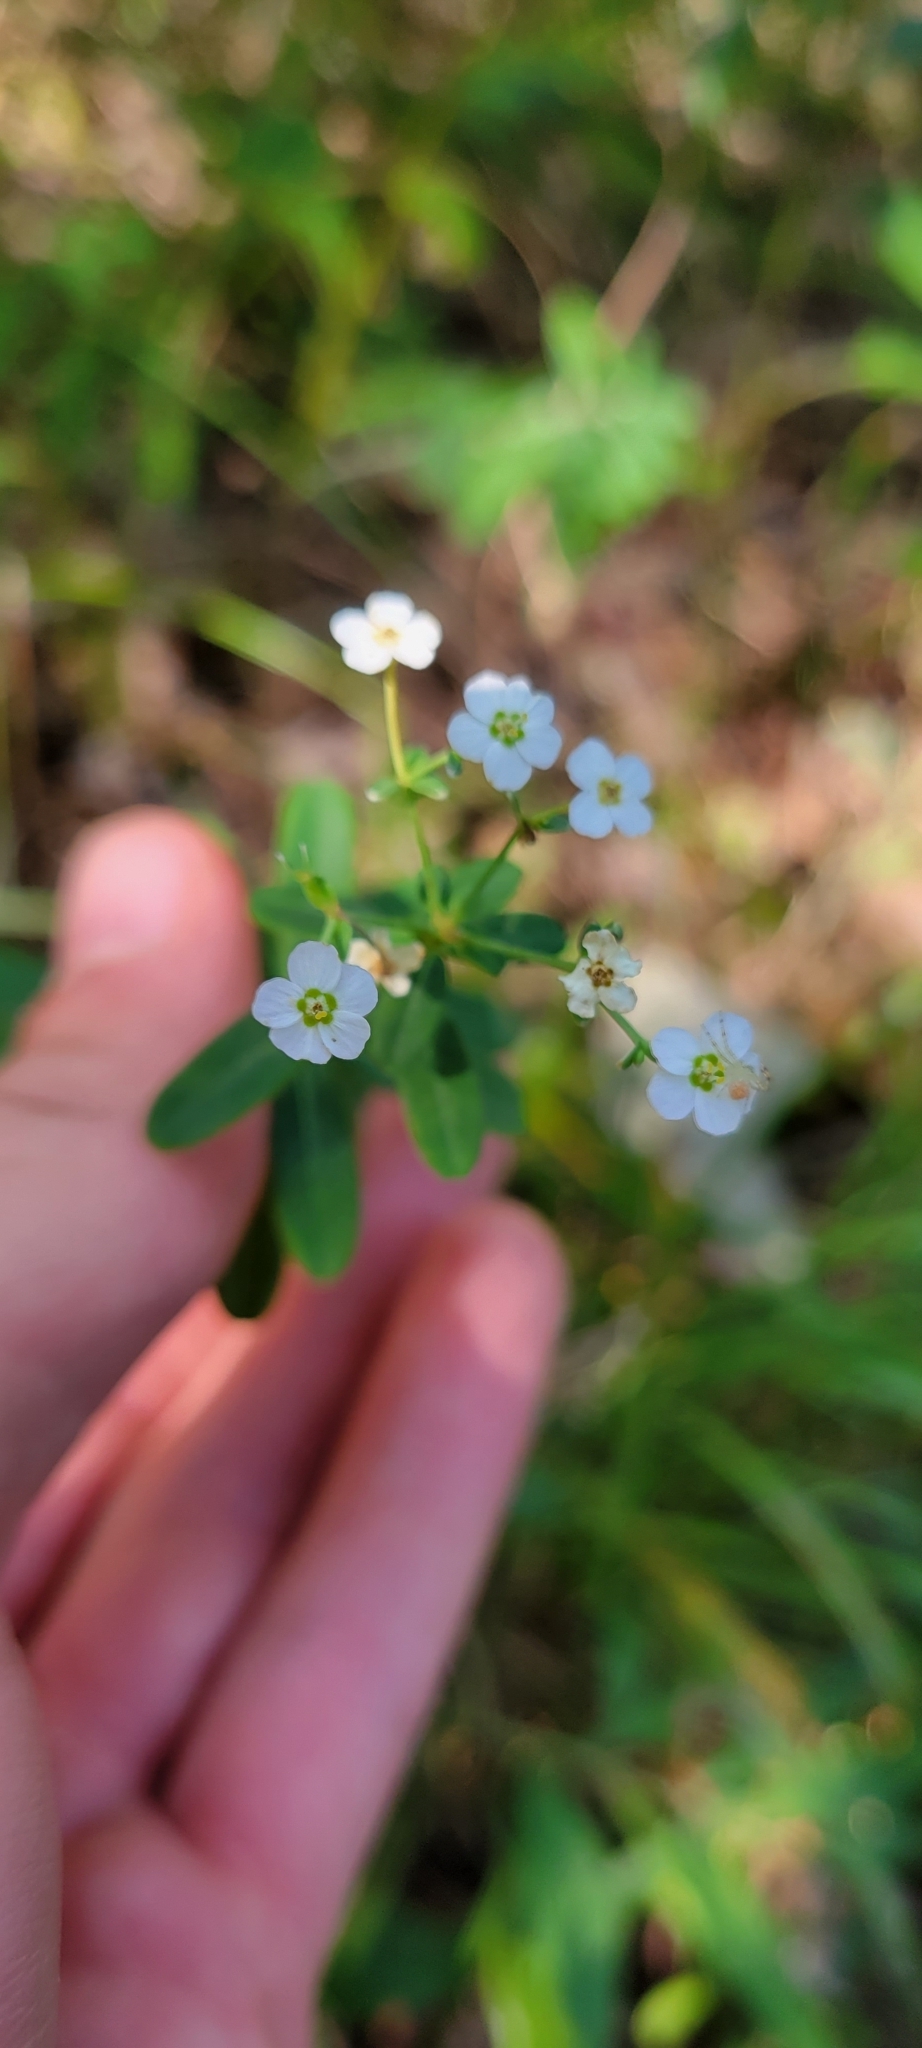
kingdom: Plantae
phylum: Tracheophyta
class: Magnoliopsida
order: Malpighiales
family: Euphorbiaceae
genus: Euphorbia
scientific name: Euphorbia corollata
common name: Flowering spurge
